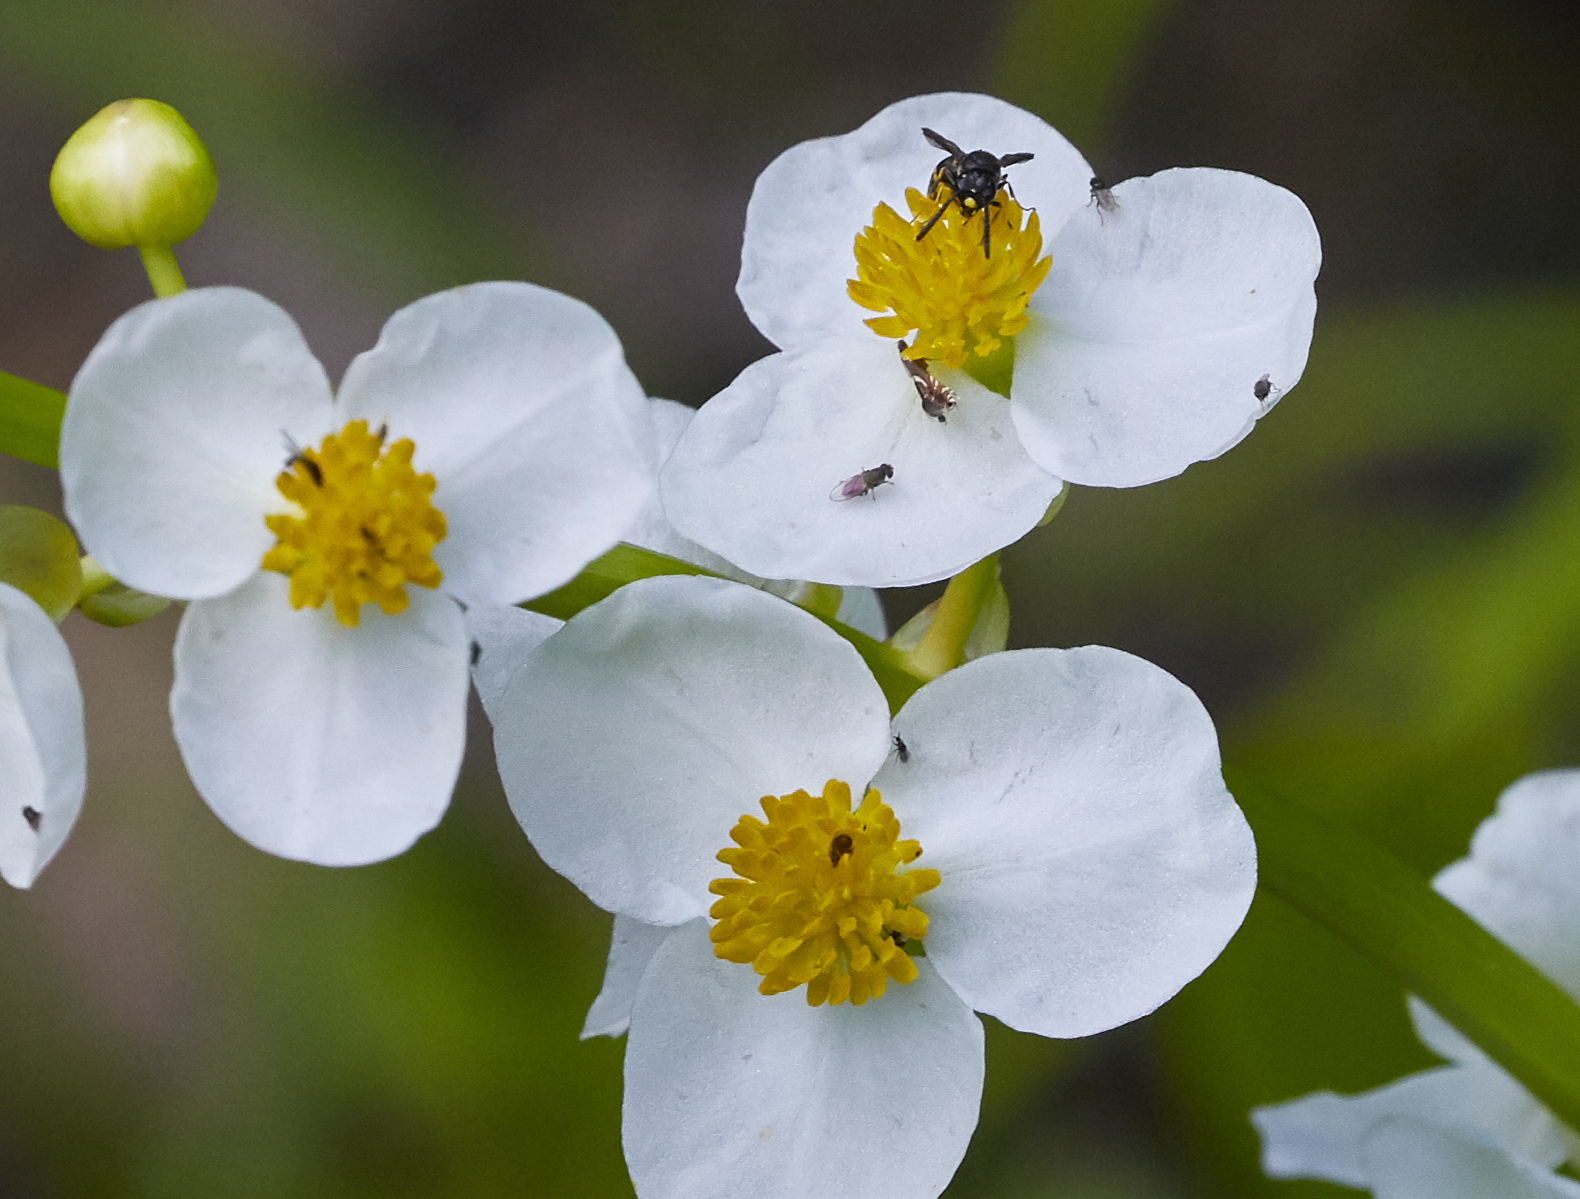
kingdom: Plantae
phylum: Tracheophyta
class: Liliopsida
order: Alismatales
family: Alismataceae
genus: Sagittaria
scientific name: Sagittaria latifolia
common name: Duck-potato
